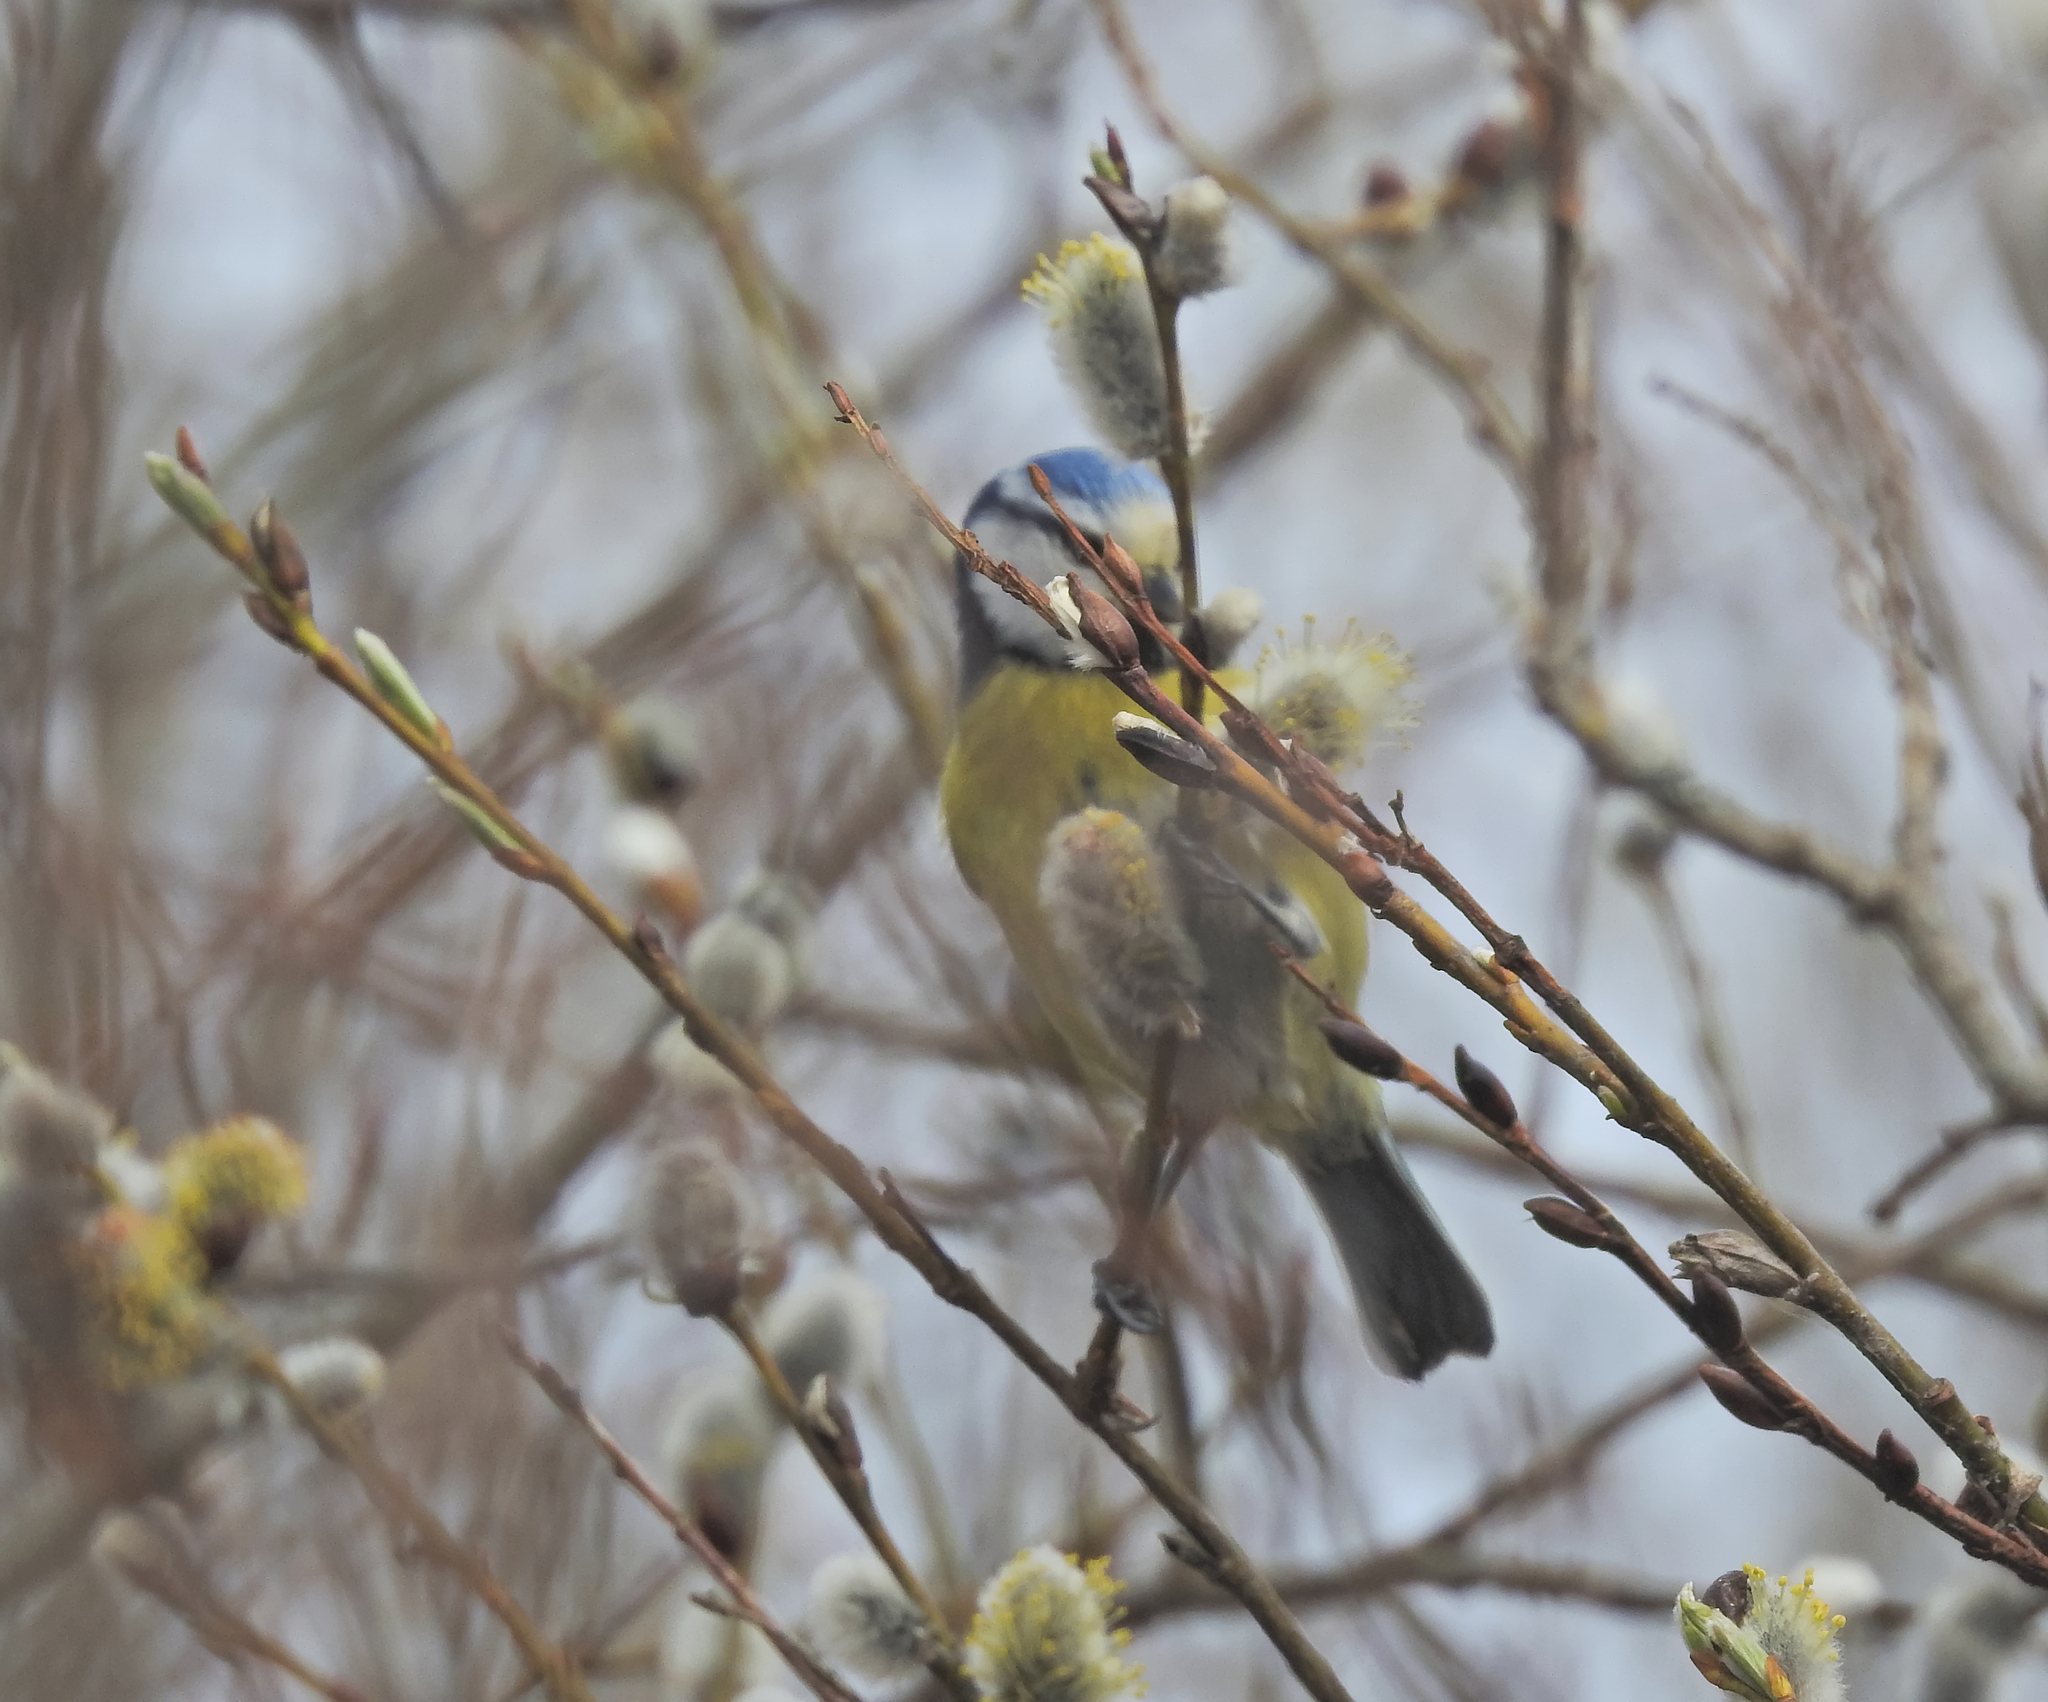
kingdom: Animalia
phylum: Chordata
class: Aves
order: Passeriformes
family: Paridae
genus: Cyanistes
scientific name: Cyanistes caeruleus
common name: Eurasian blue tit
